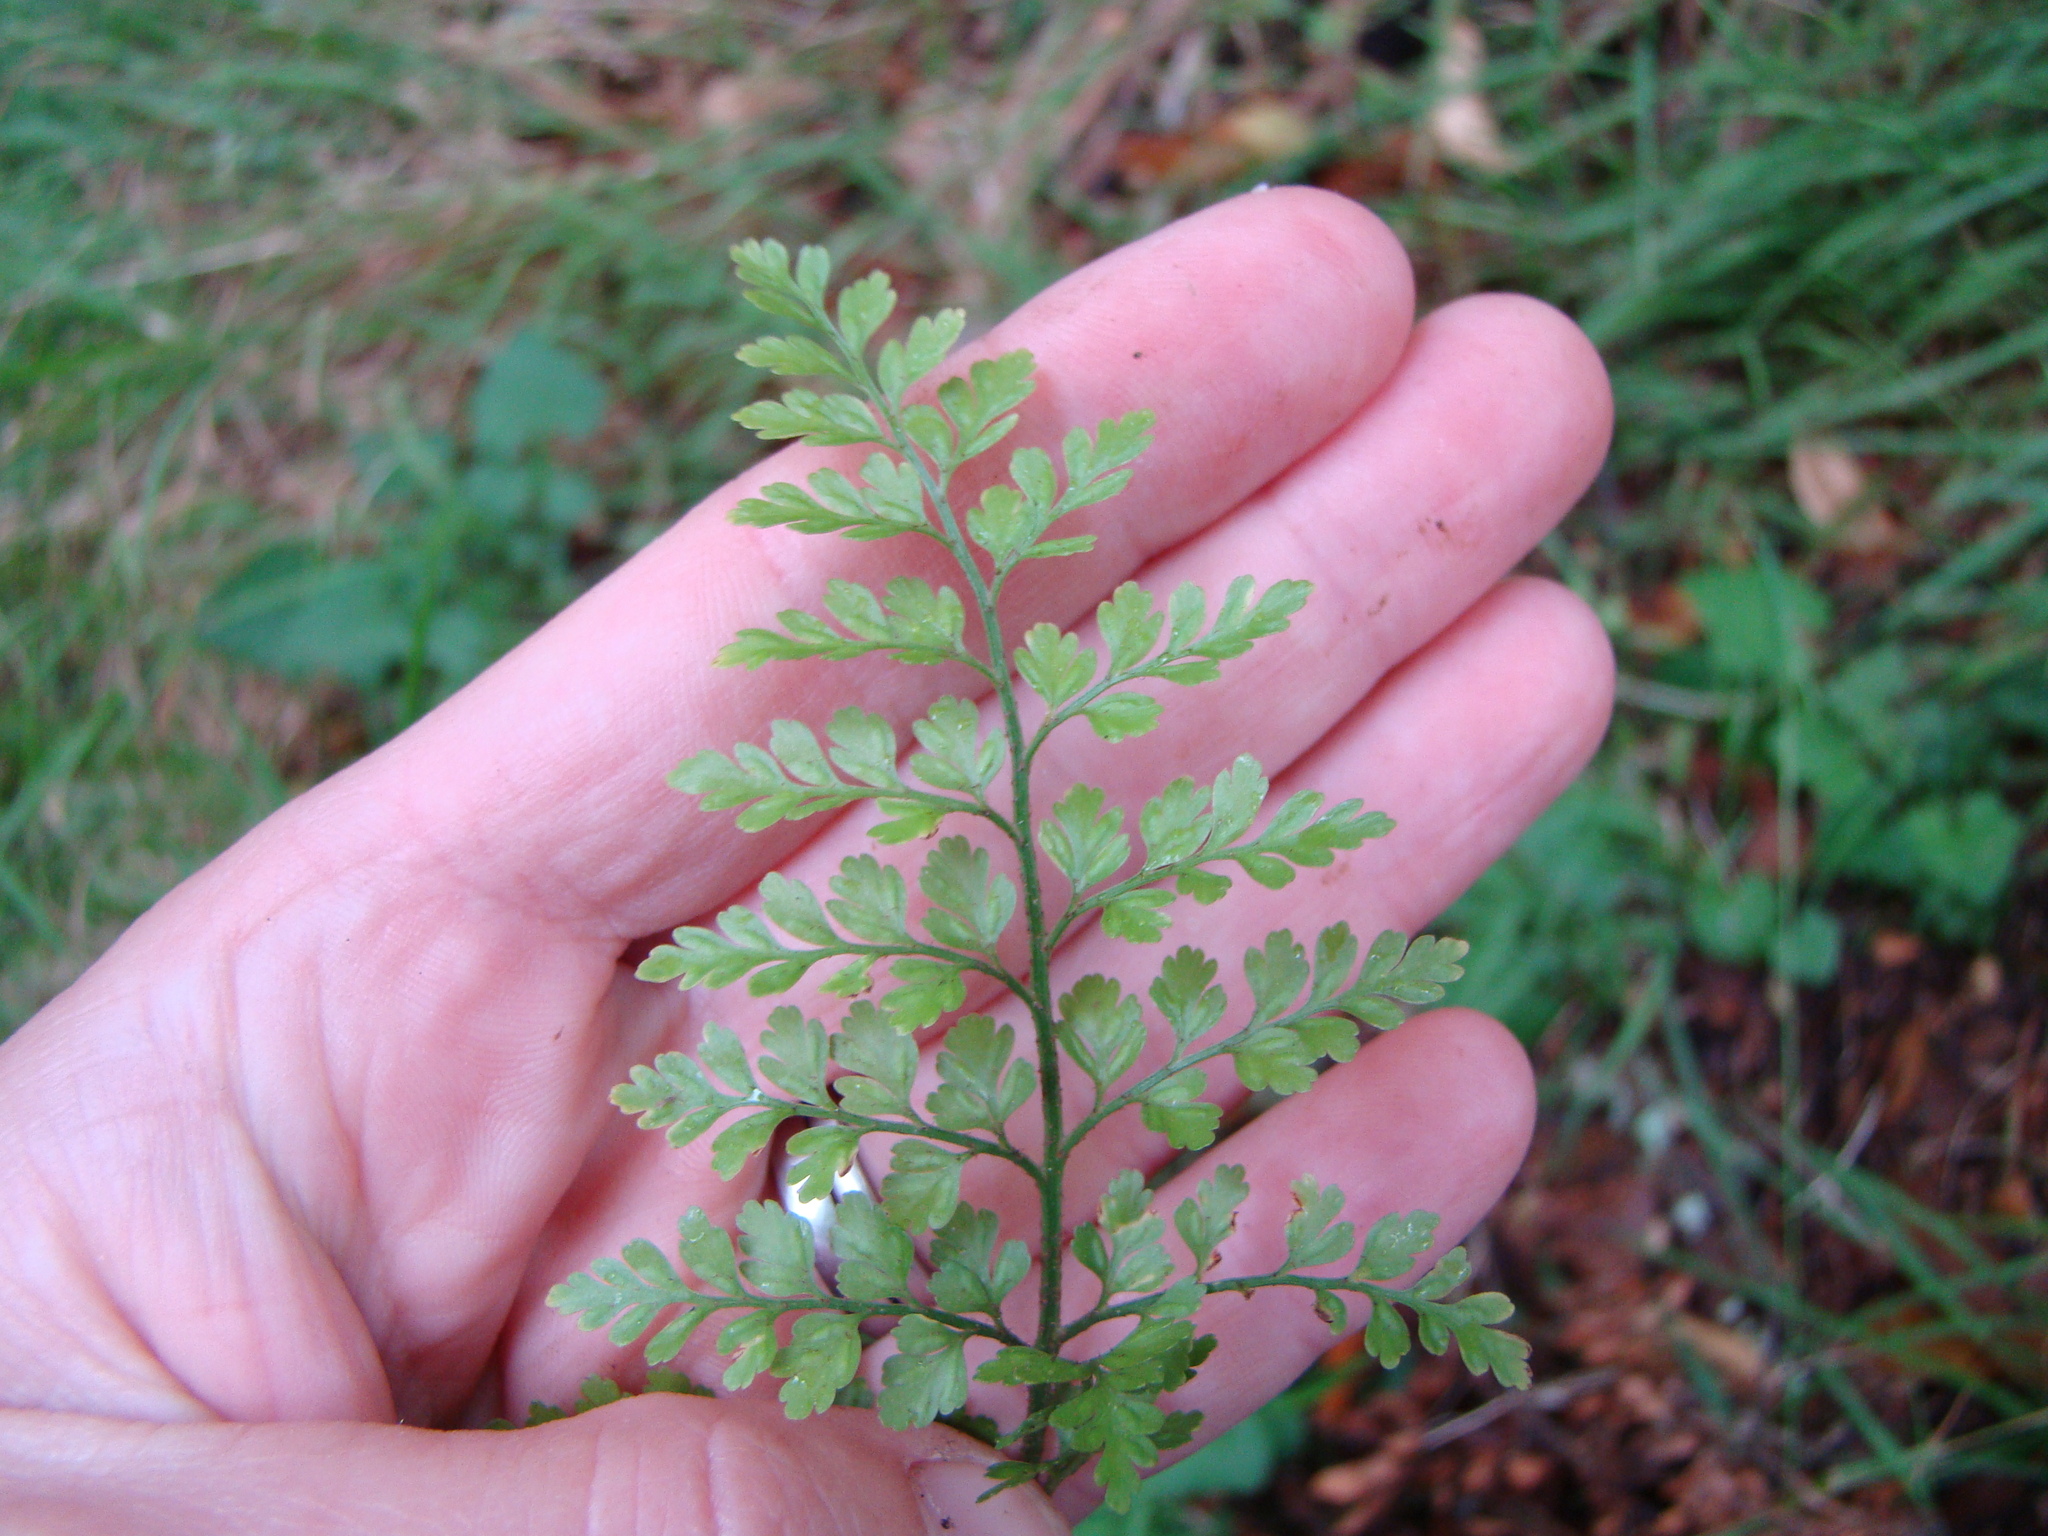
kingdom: Plantae
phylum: Tracheophyta
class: Polypodiopsida
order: Polypodiales
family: Aspleniaceae
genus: Asplenium
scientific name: Asplenium hookerianum
